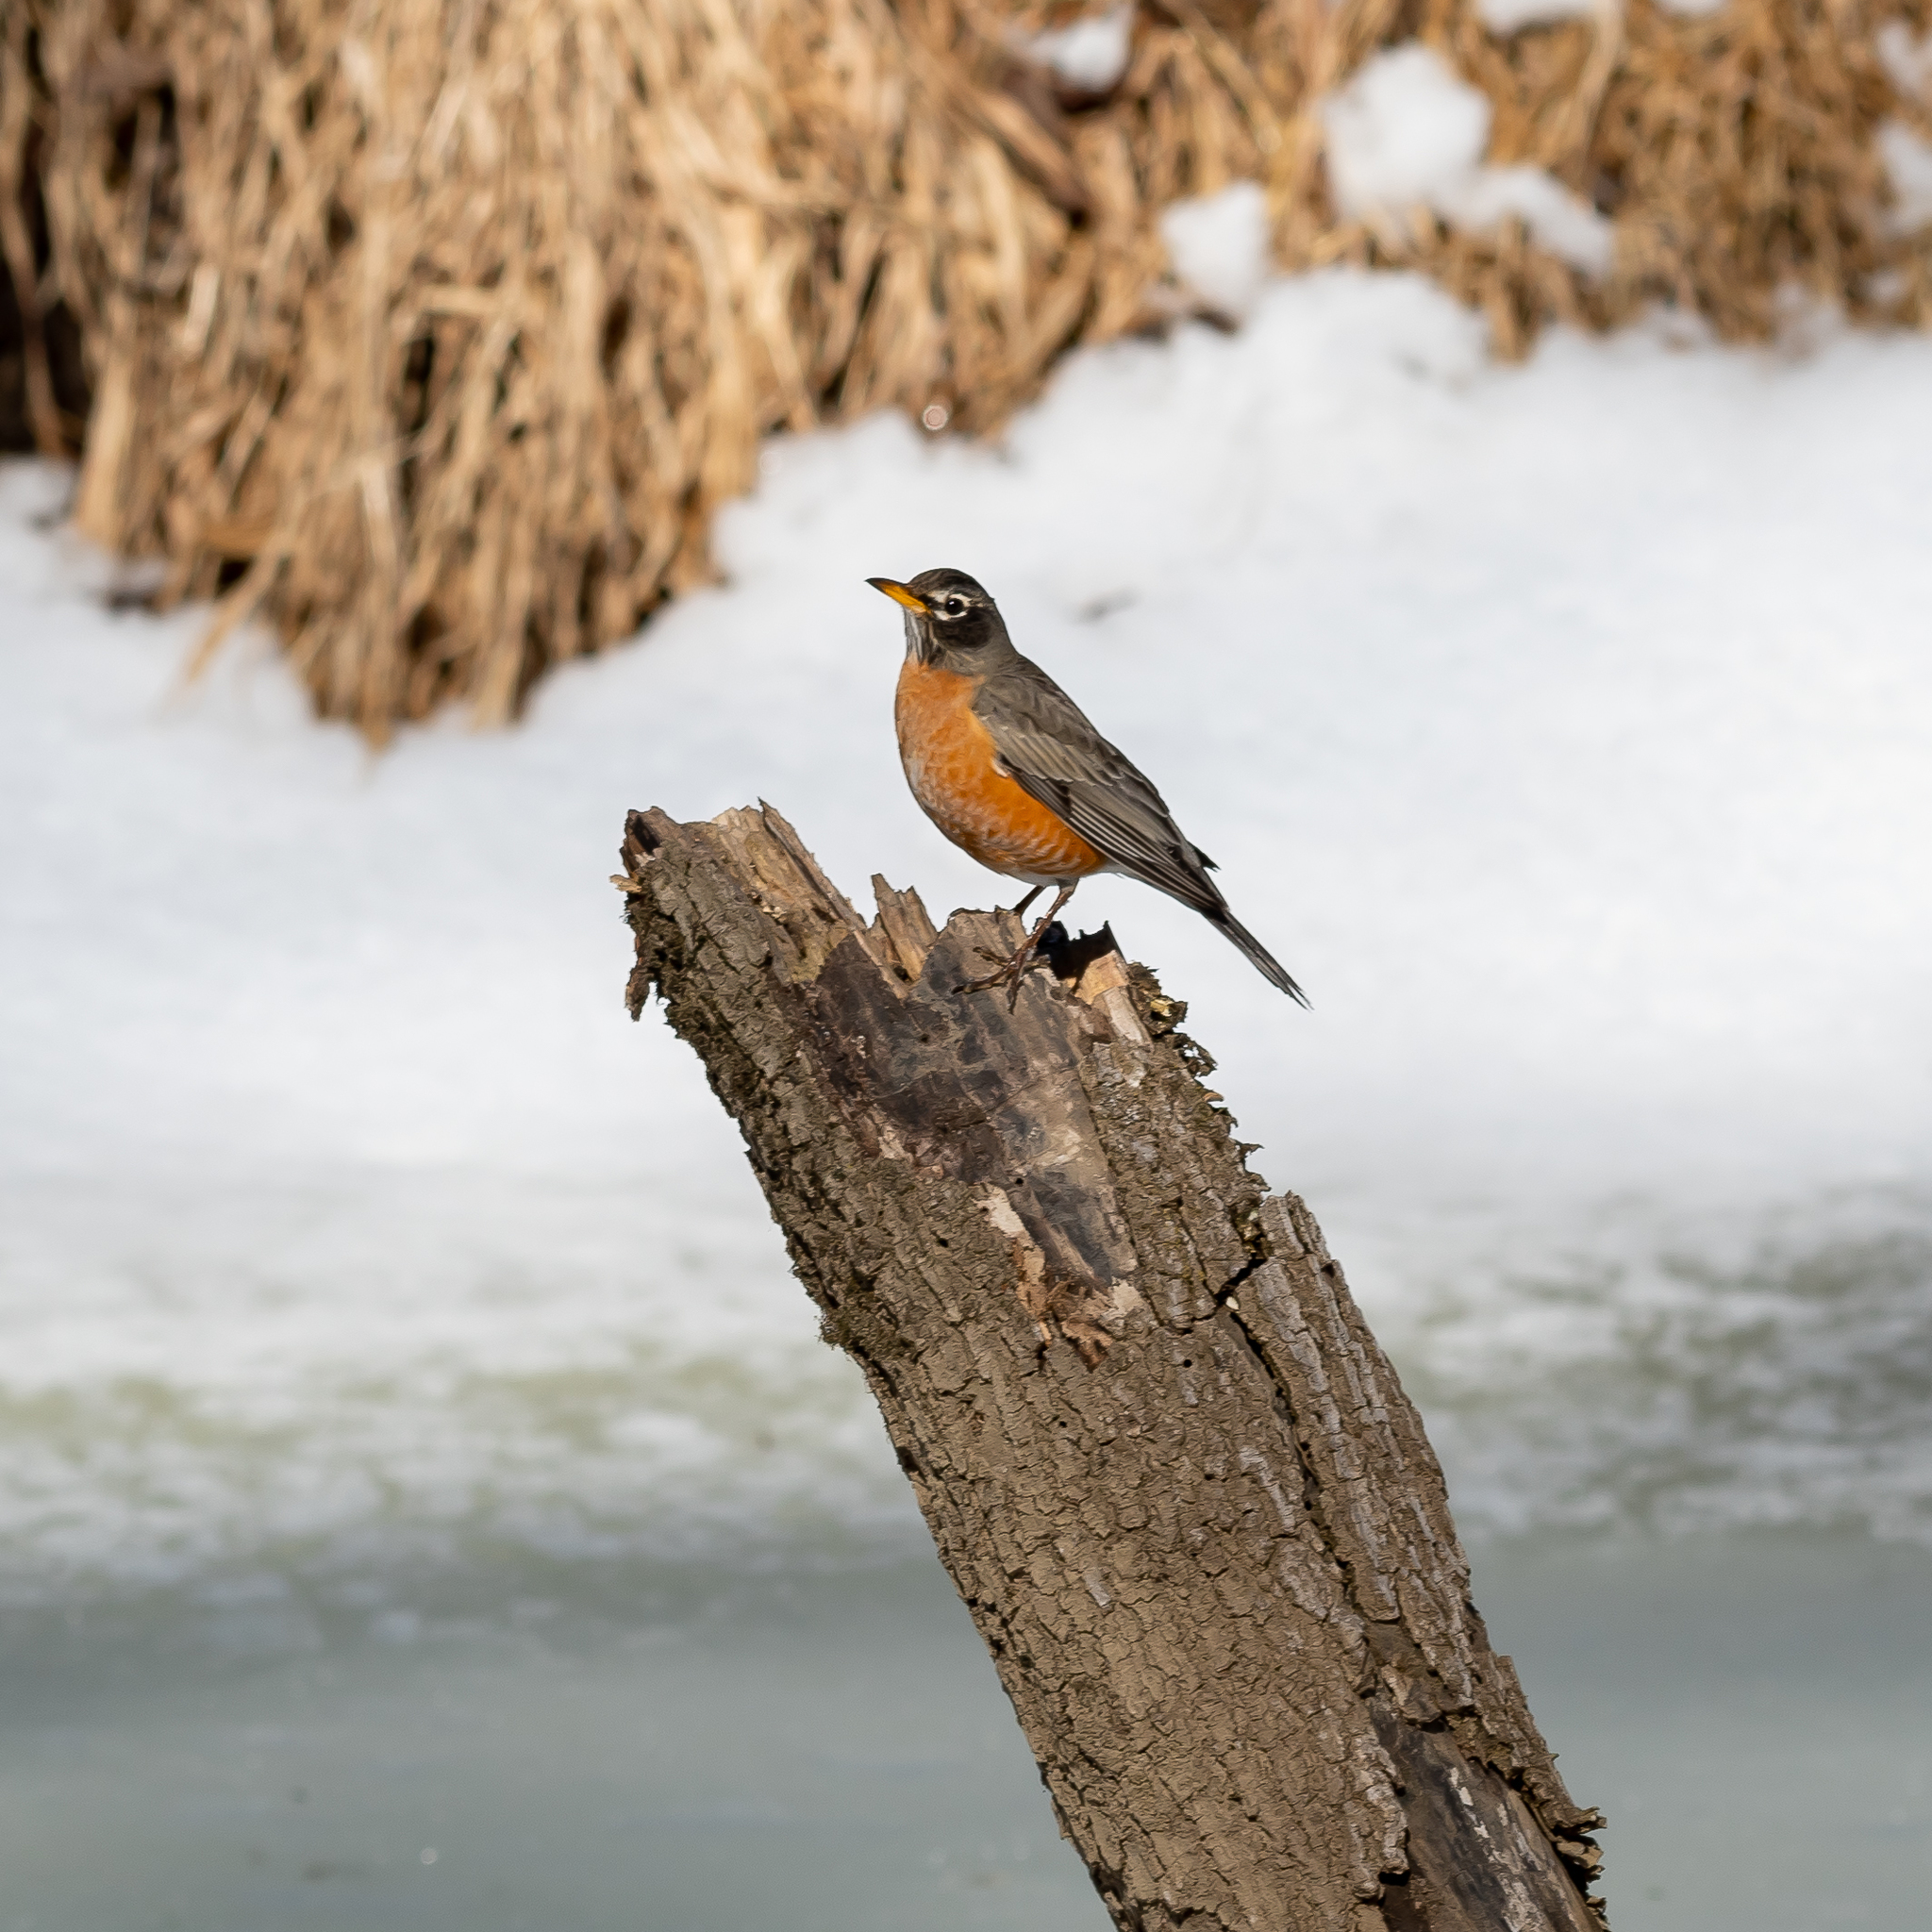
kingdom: Animalia
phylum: Chordata
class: Aves
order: Passeriformes
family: Turdidae
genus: Turdus
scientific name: Turdus migratorius
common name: American robin
